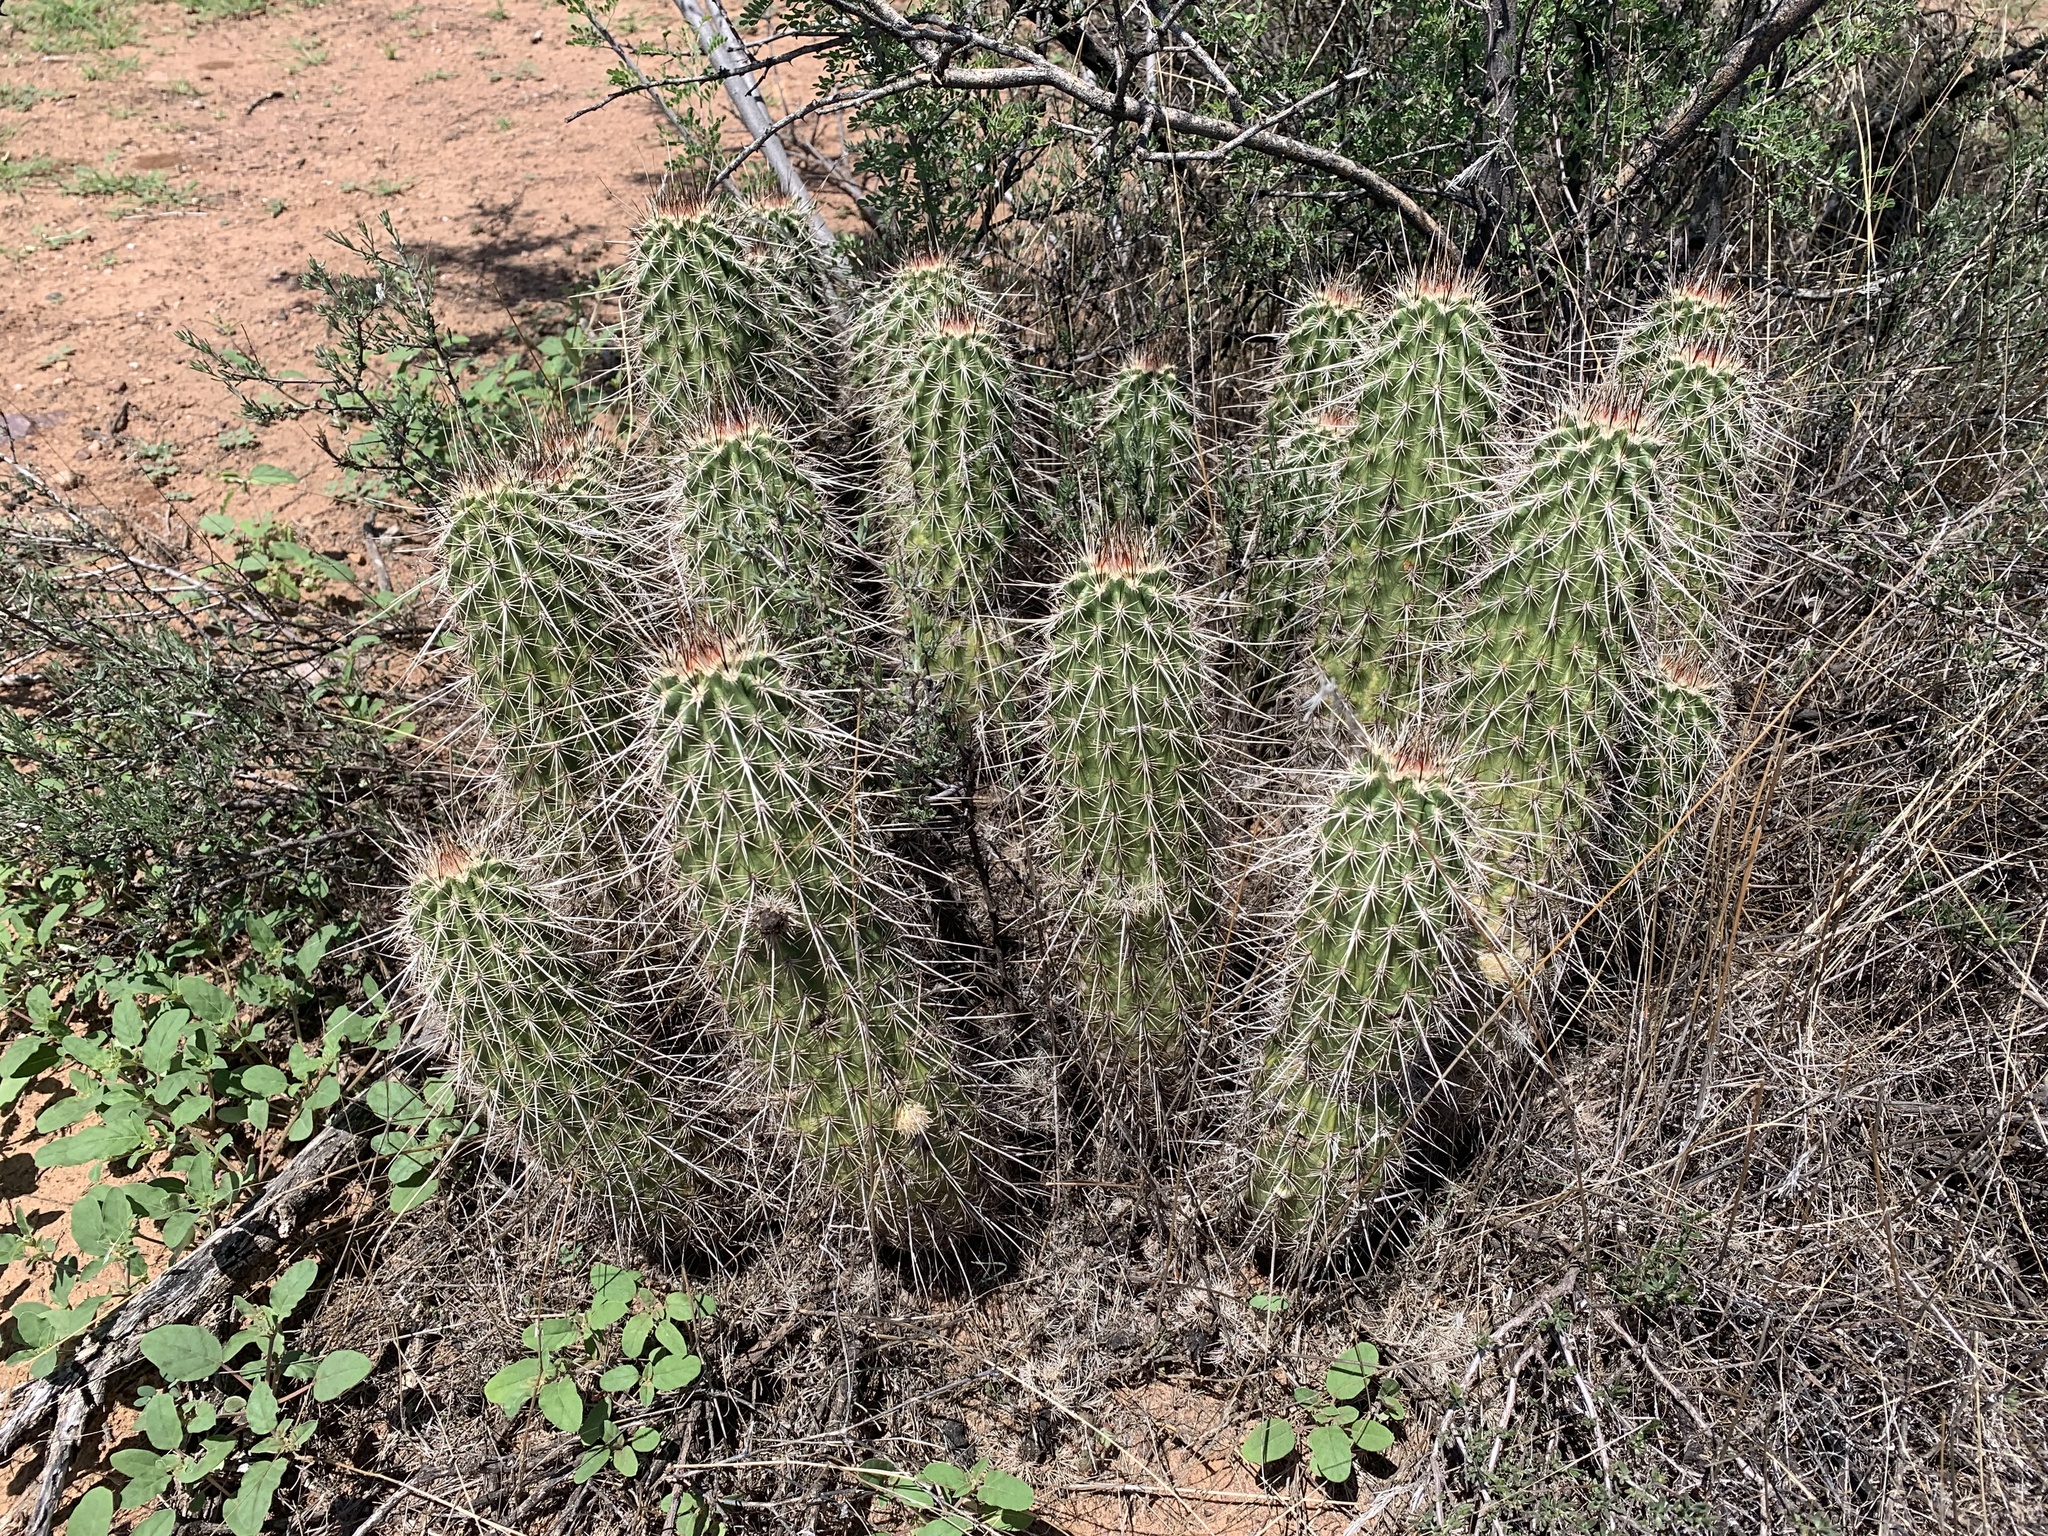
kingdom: Plantae
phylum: Tracheophyta
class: Magnoliopsida
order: Caryophyllales
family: Cactaceae
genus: Echinocereus
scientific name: Echinocereus fasciculatus
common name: Bundle hedgehog
